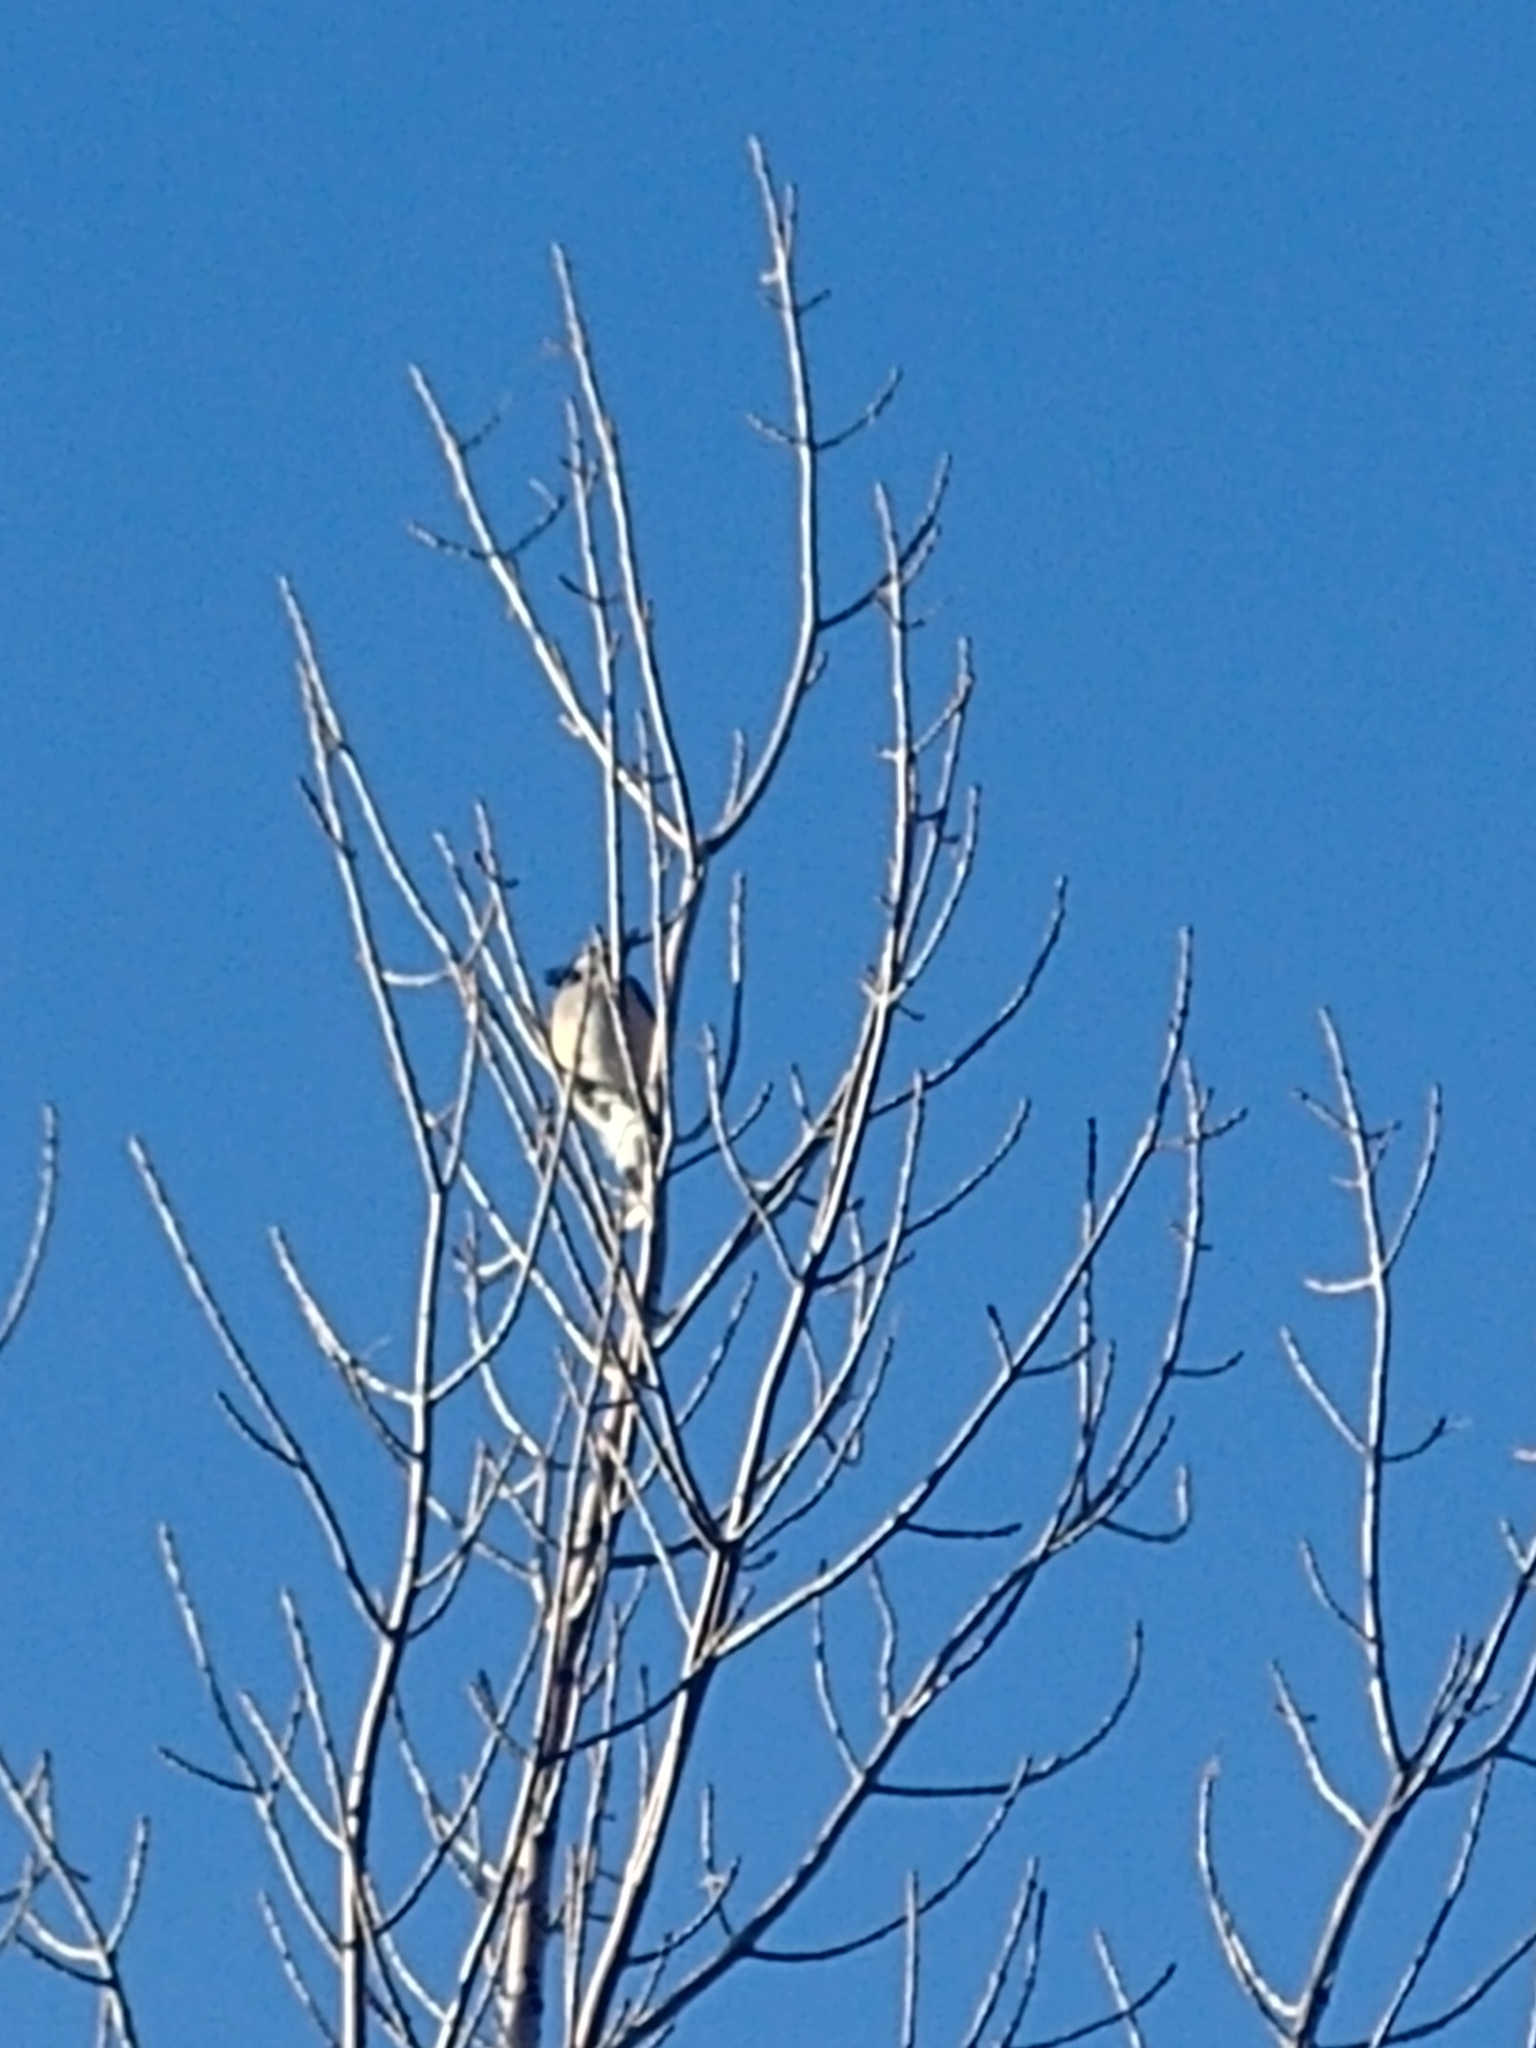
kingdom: Animalia
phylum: Chordata
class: Aves
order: Passeriformes
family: Corvidae
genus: Cyanocitta
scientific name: Cyanocitta cristata
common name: Blue jay
